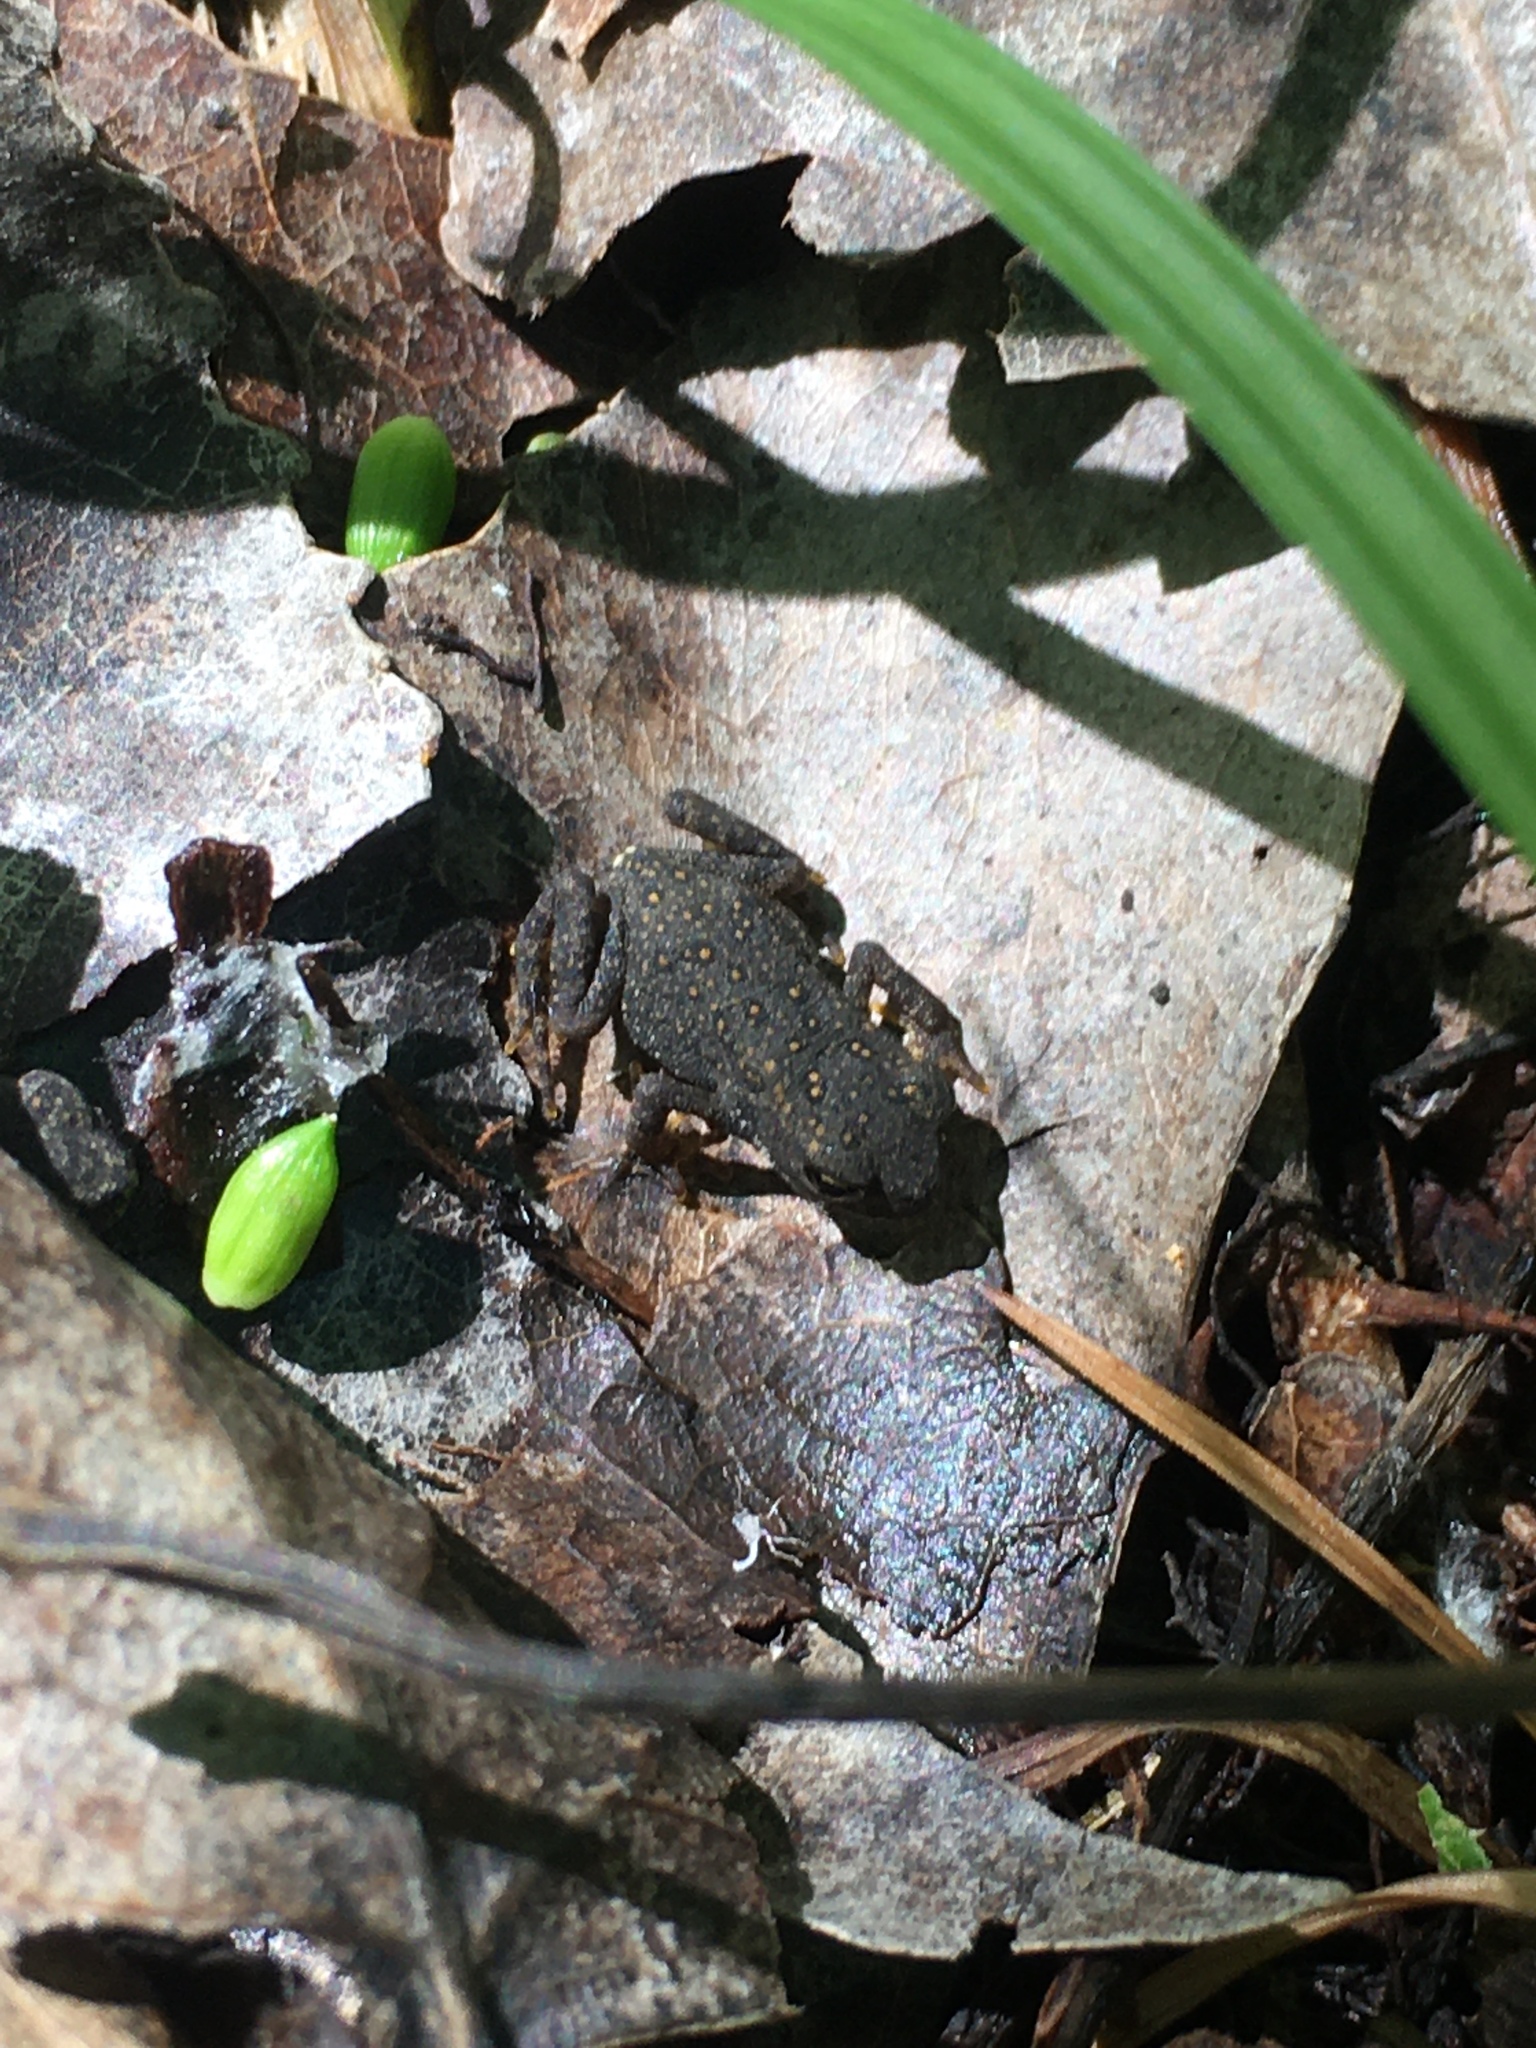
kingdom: Animalia
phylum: Chordata
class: Amphibia
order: Anura
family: Bufonidae
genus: Anaxyrus
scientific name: Anaxyrus americanus
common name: American toad
